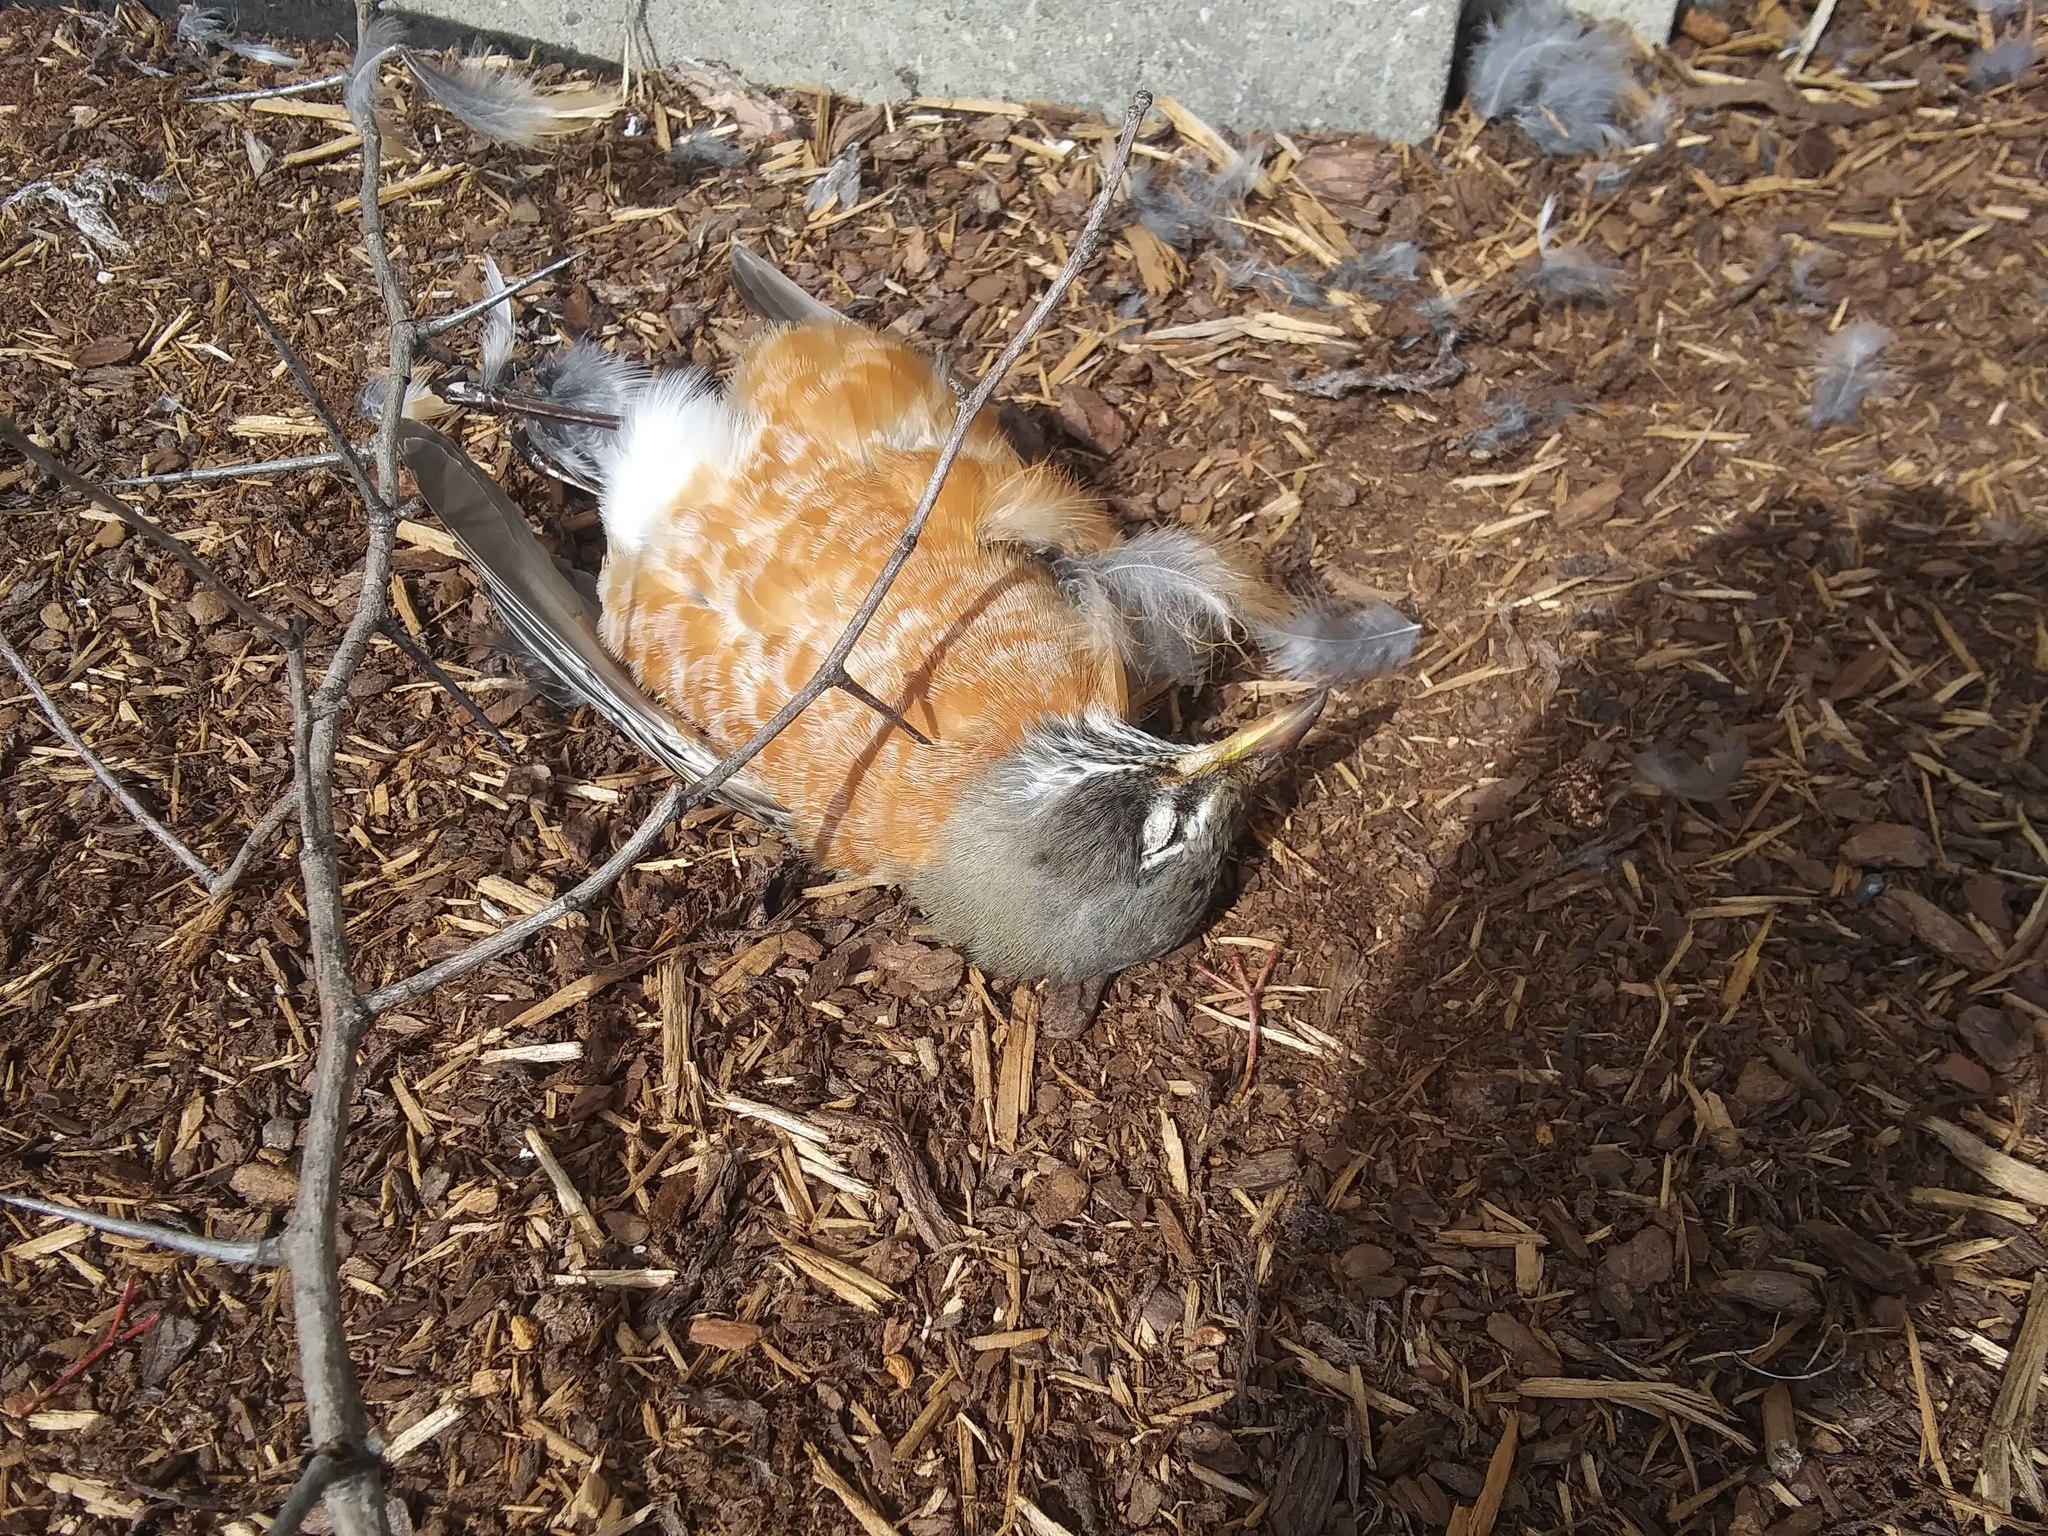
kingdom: Animalia
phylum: Chordata
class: Aves
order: Passeriformes
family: Turdidae
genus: Turdus
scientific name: Turdus migratorius
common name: American robin
